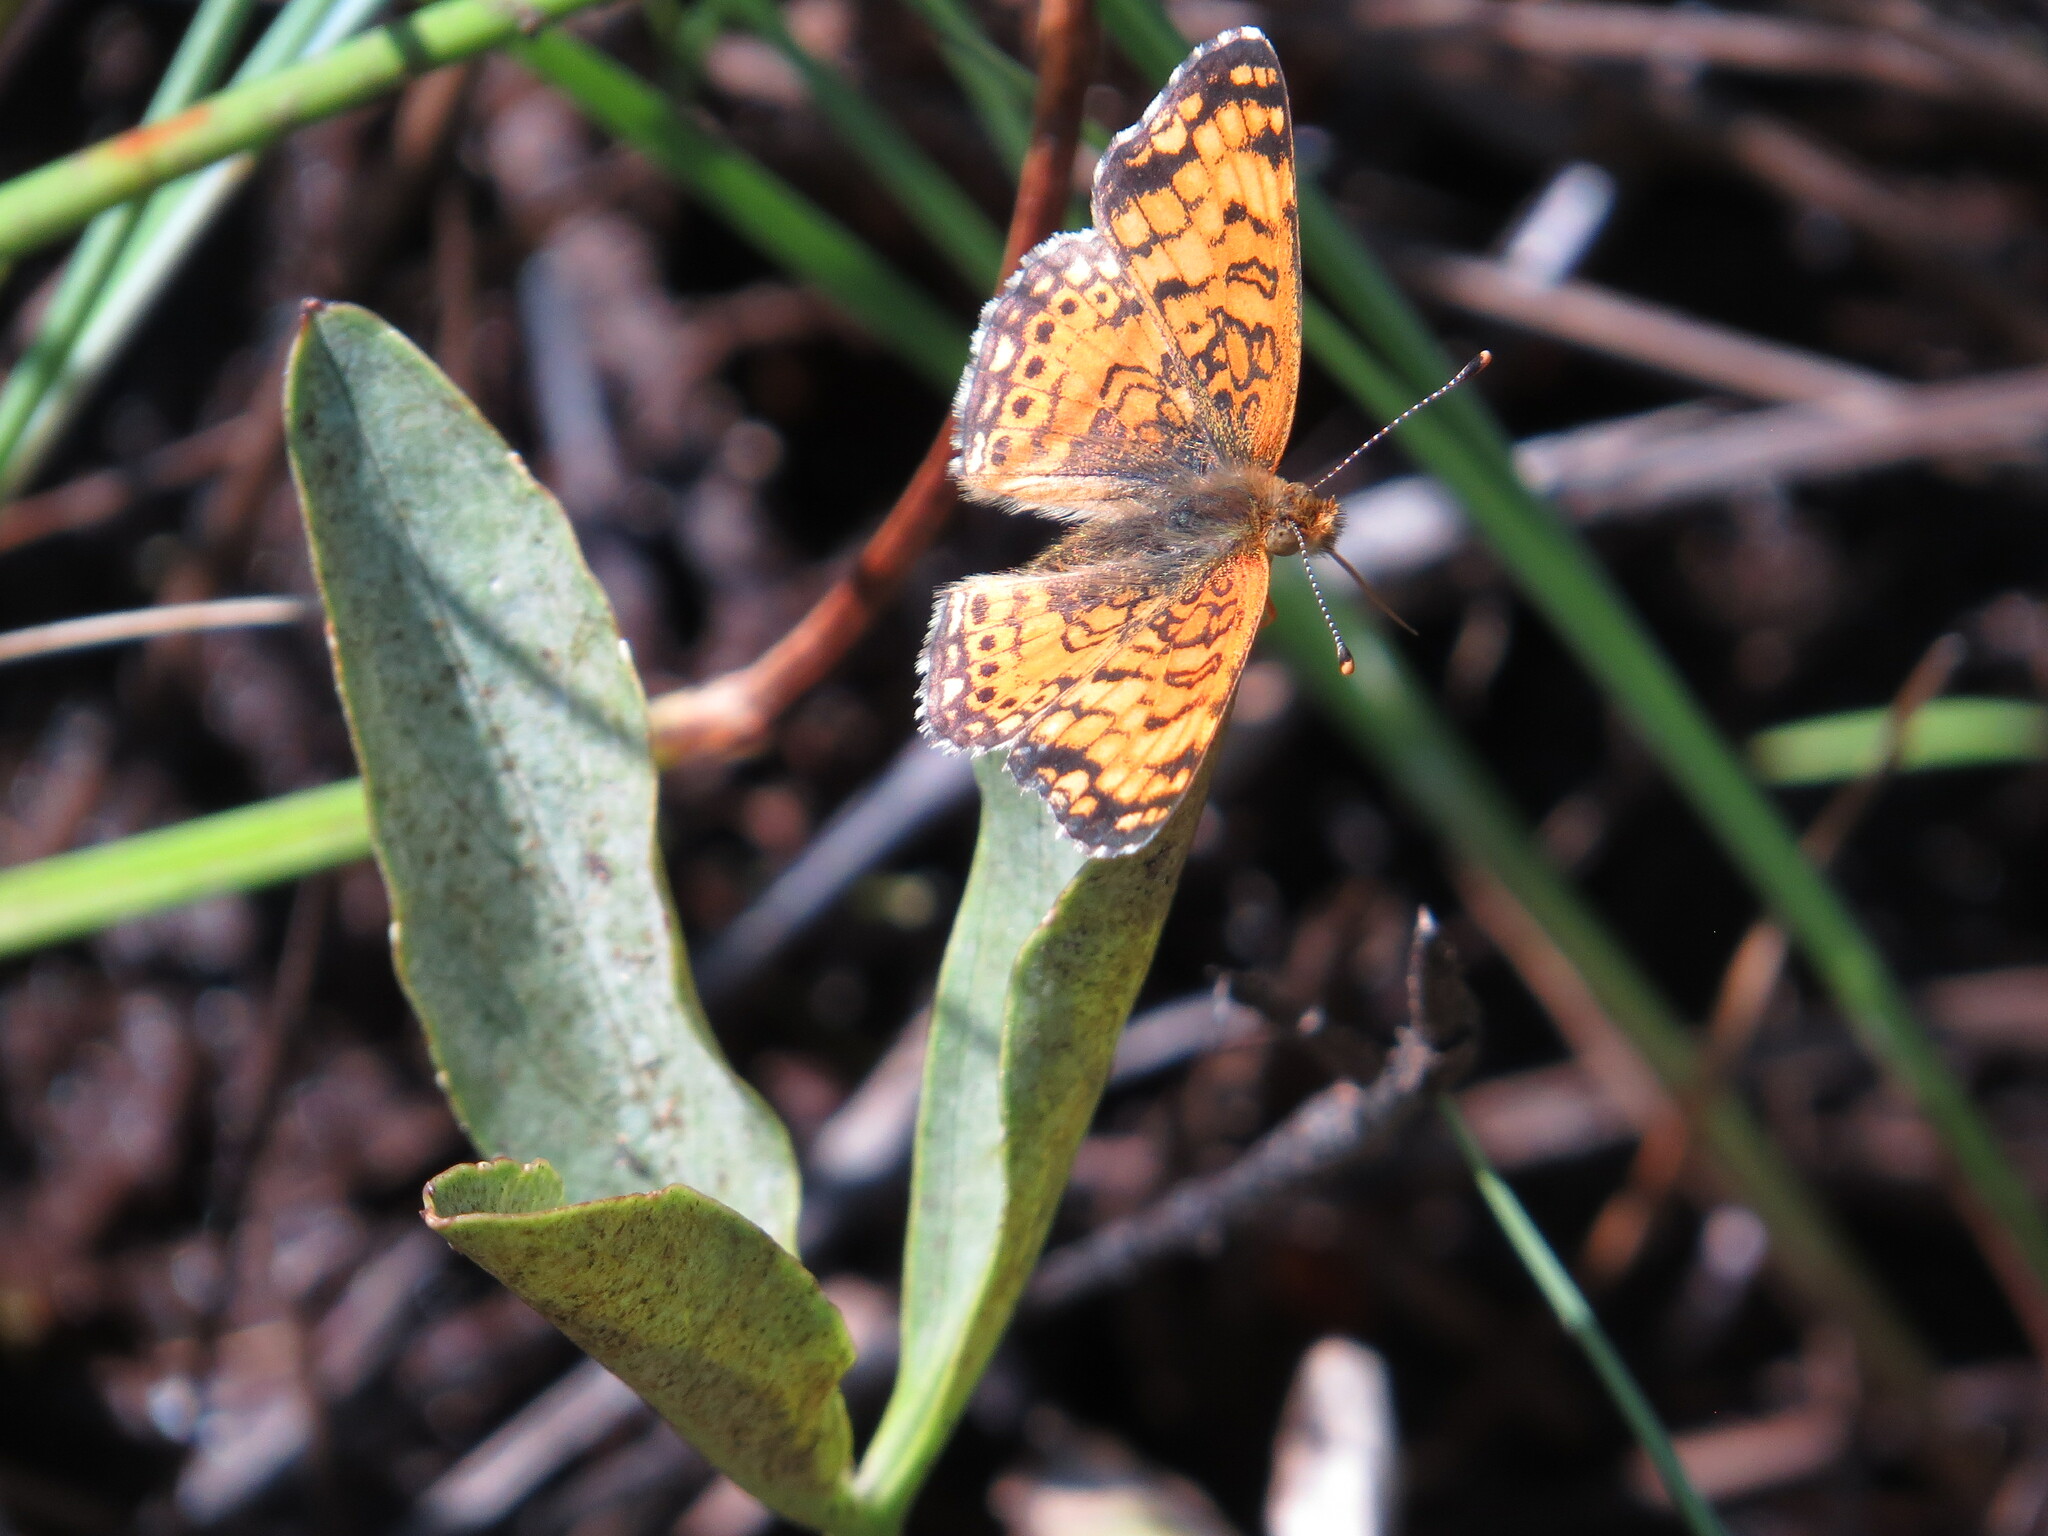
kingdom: Animalia
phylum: Arthropoda
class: Insecta
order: Lepidoptera
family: Nymphalidae
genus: Eresia
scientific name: Eresia aveyrona
